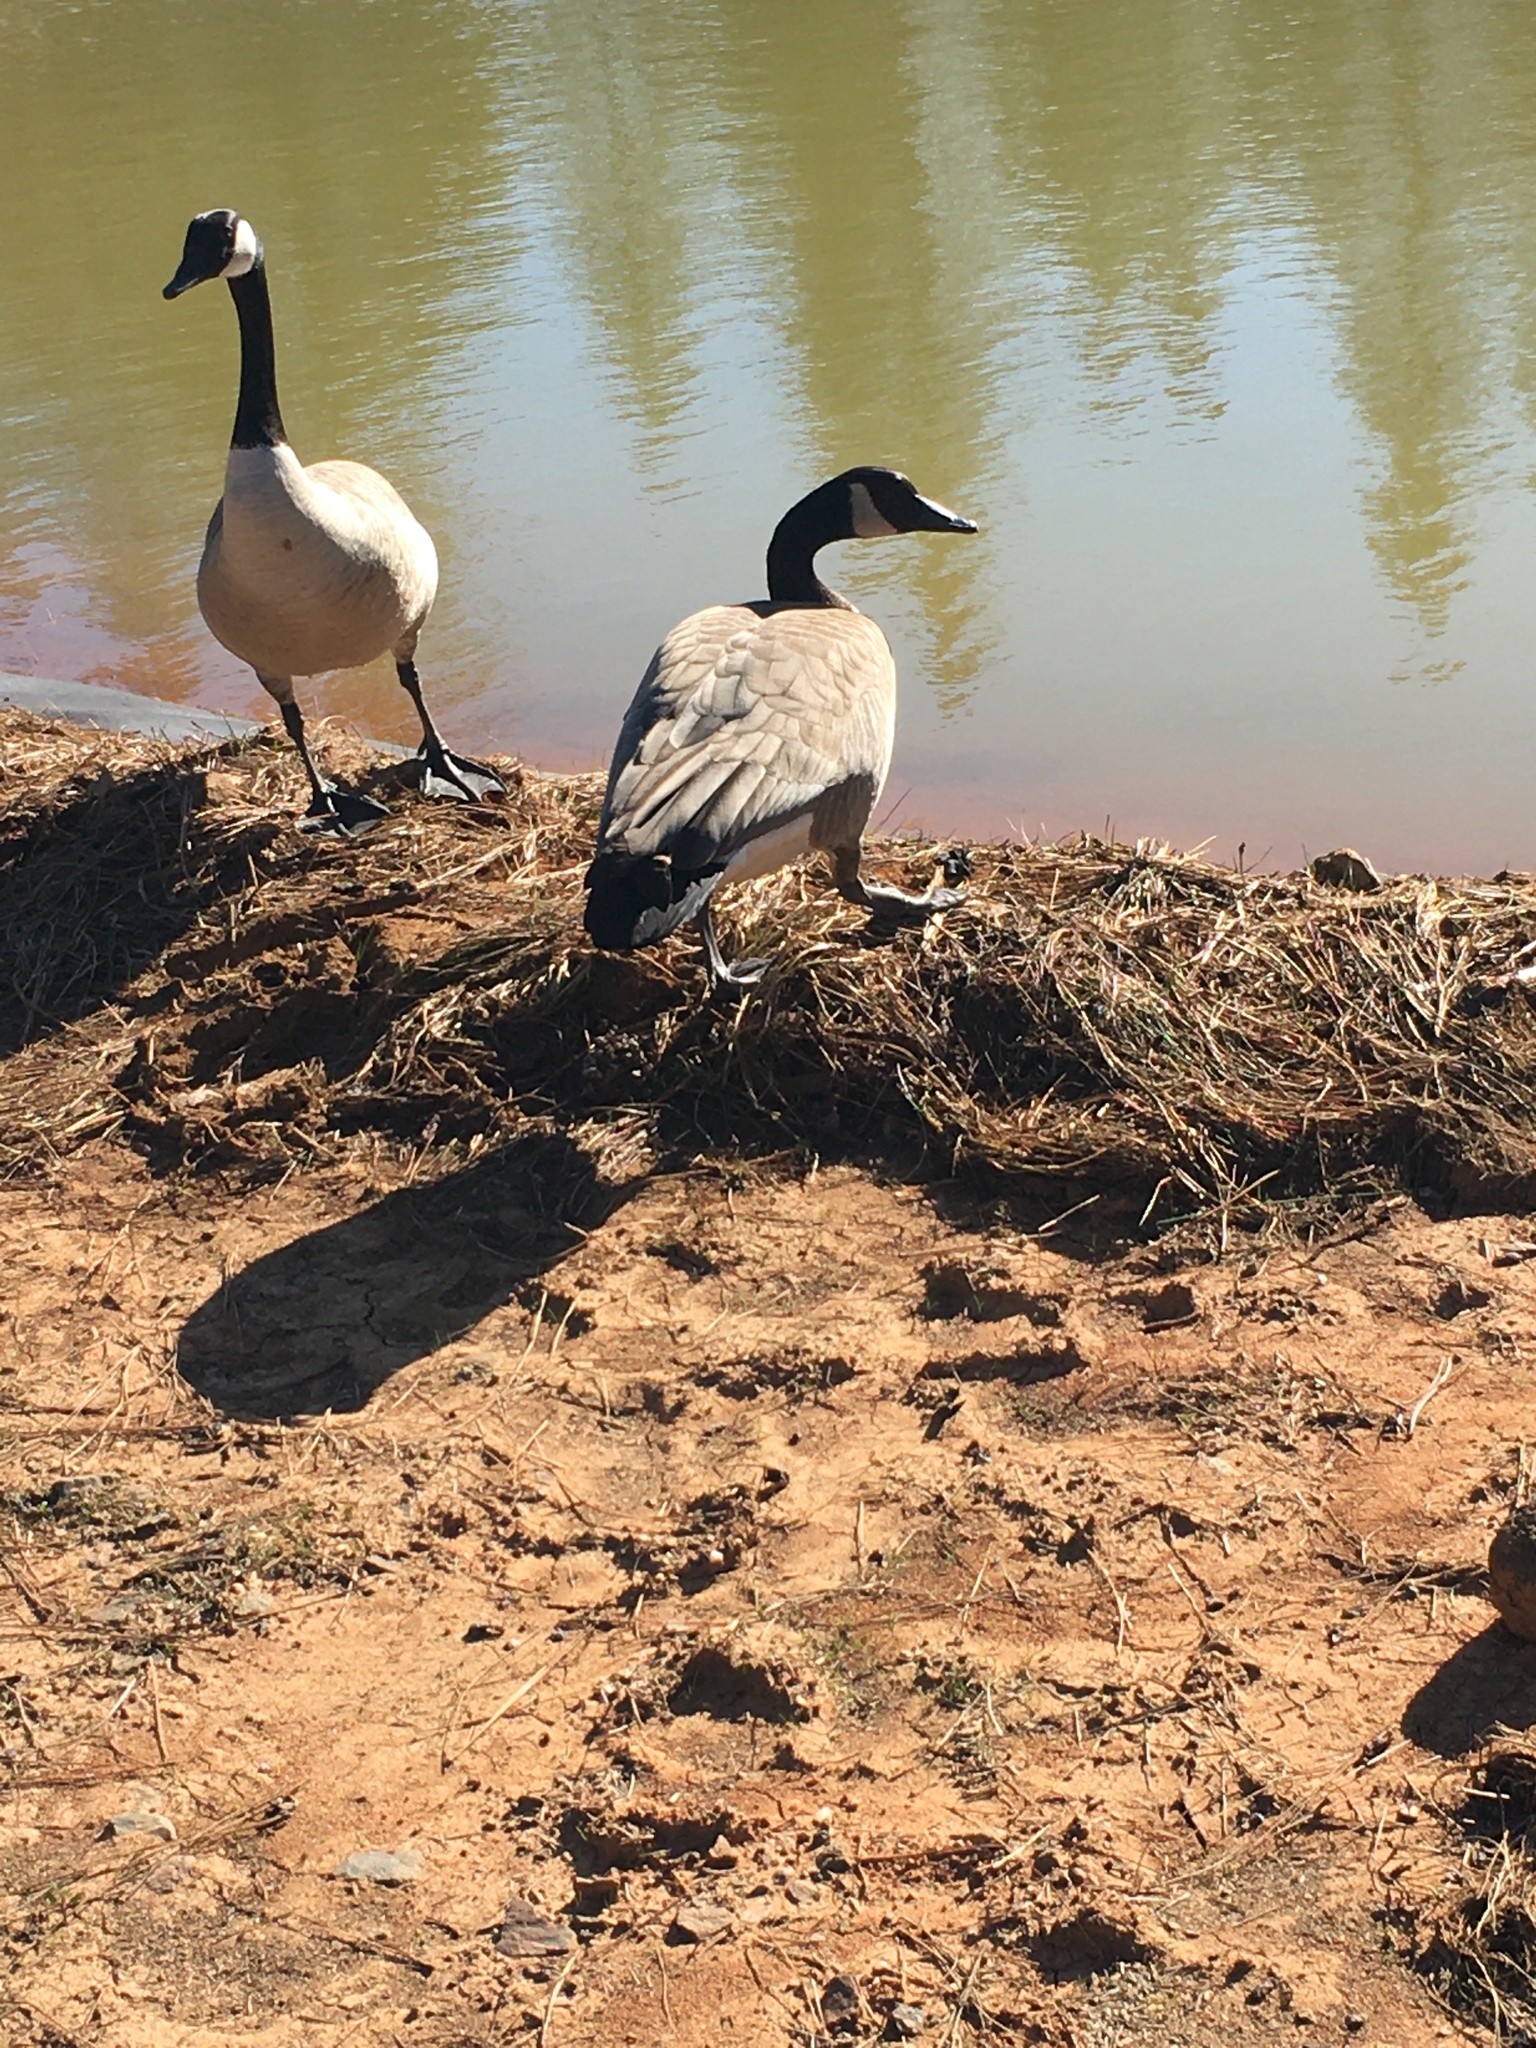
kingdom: Animalia
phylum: Chordata
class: Aves
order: Anseriformes
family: Anatidae
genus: Branta
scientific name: Branta canadensis
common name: Canada goose
